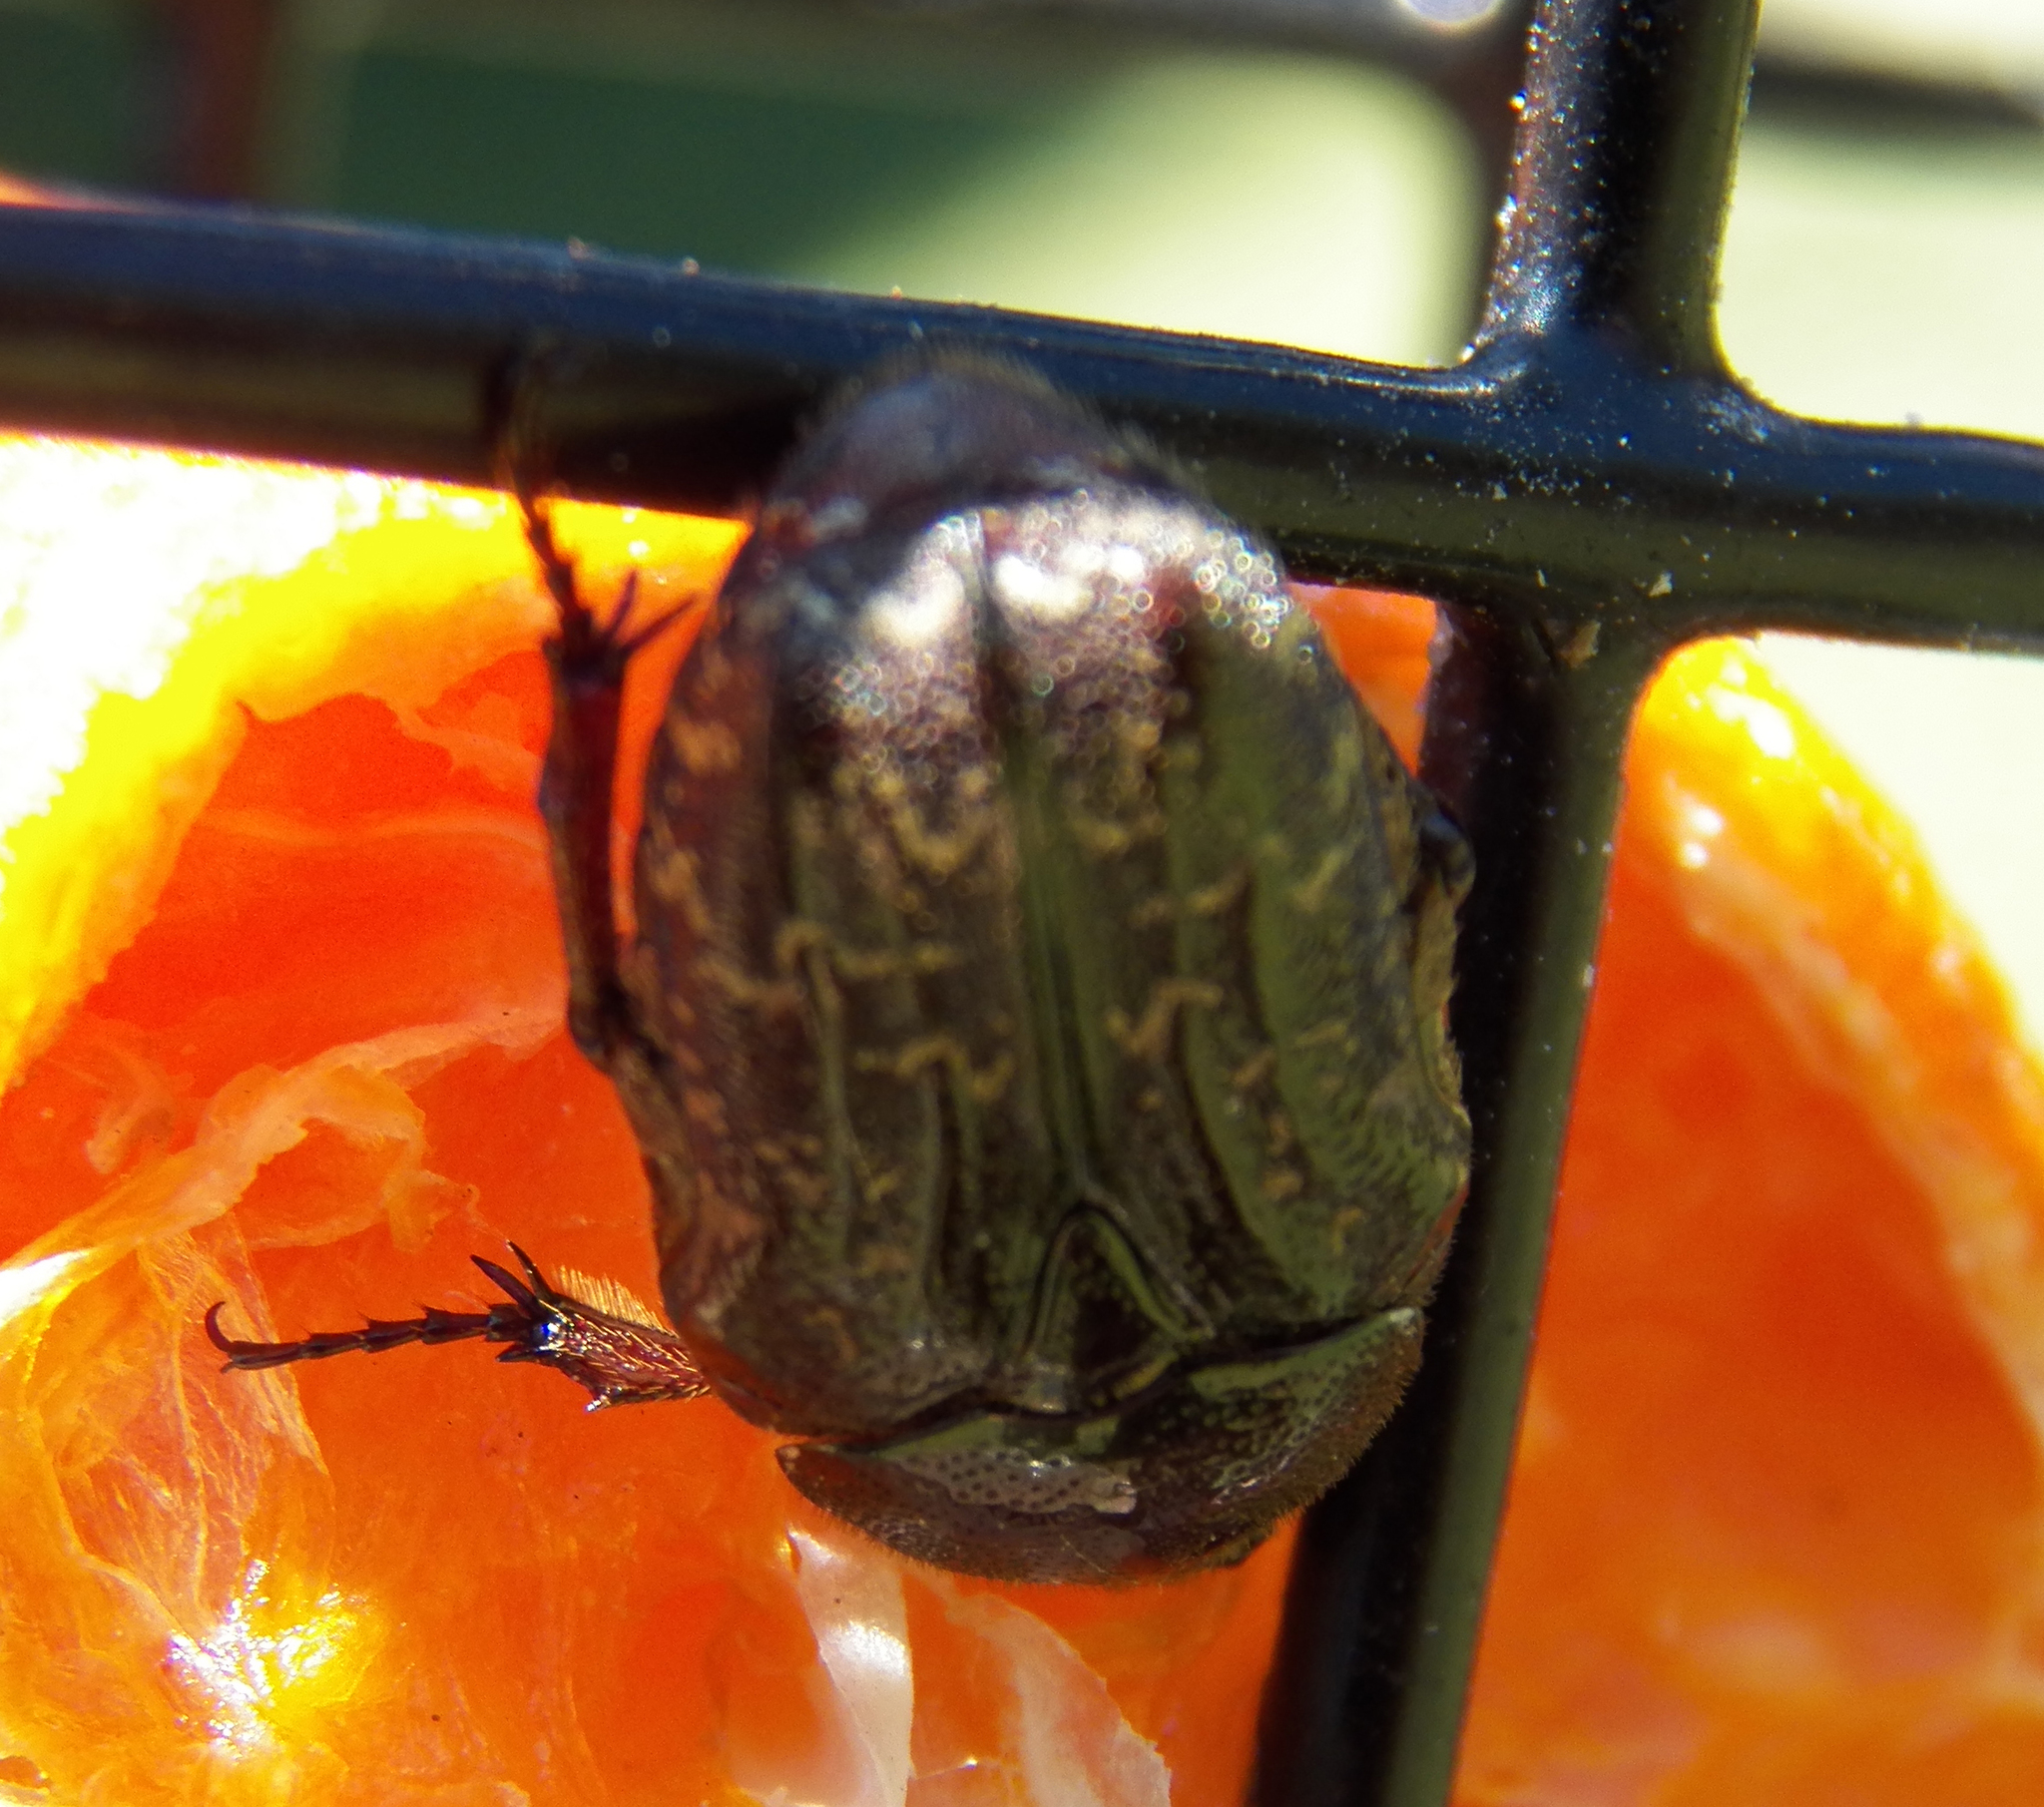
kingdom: Animalia
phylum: Arthropoda
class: Insecta
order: Coleoptera
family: Scarabaeidae
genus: Euphoria
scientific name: Euphoria sepulcralis
